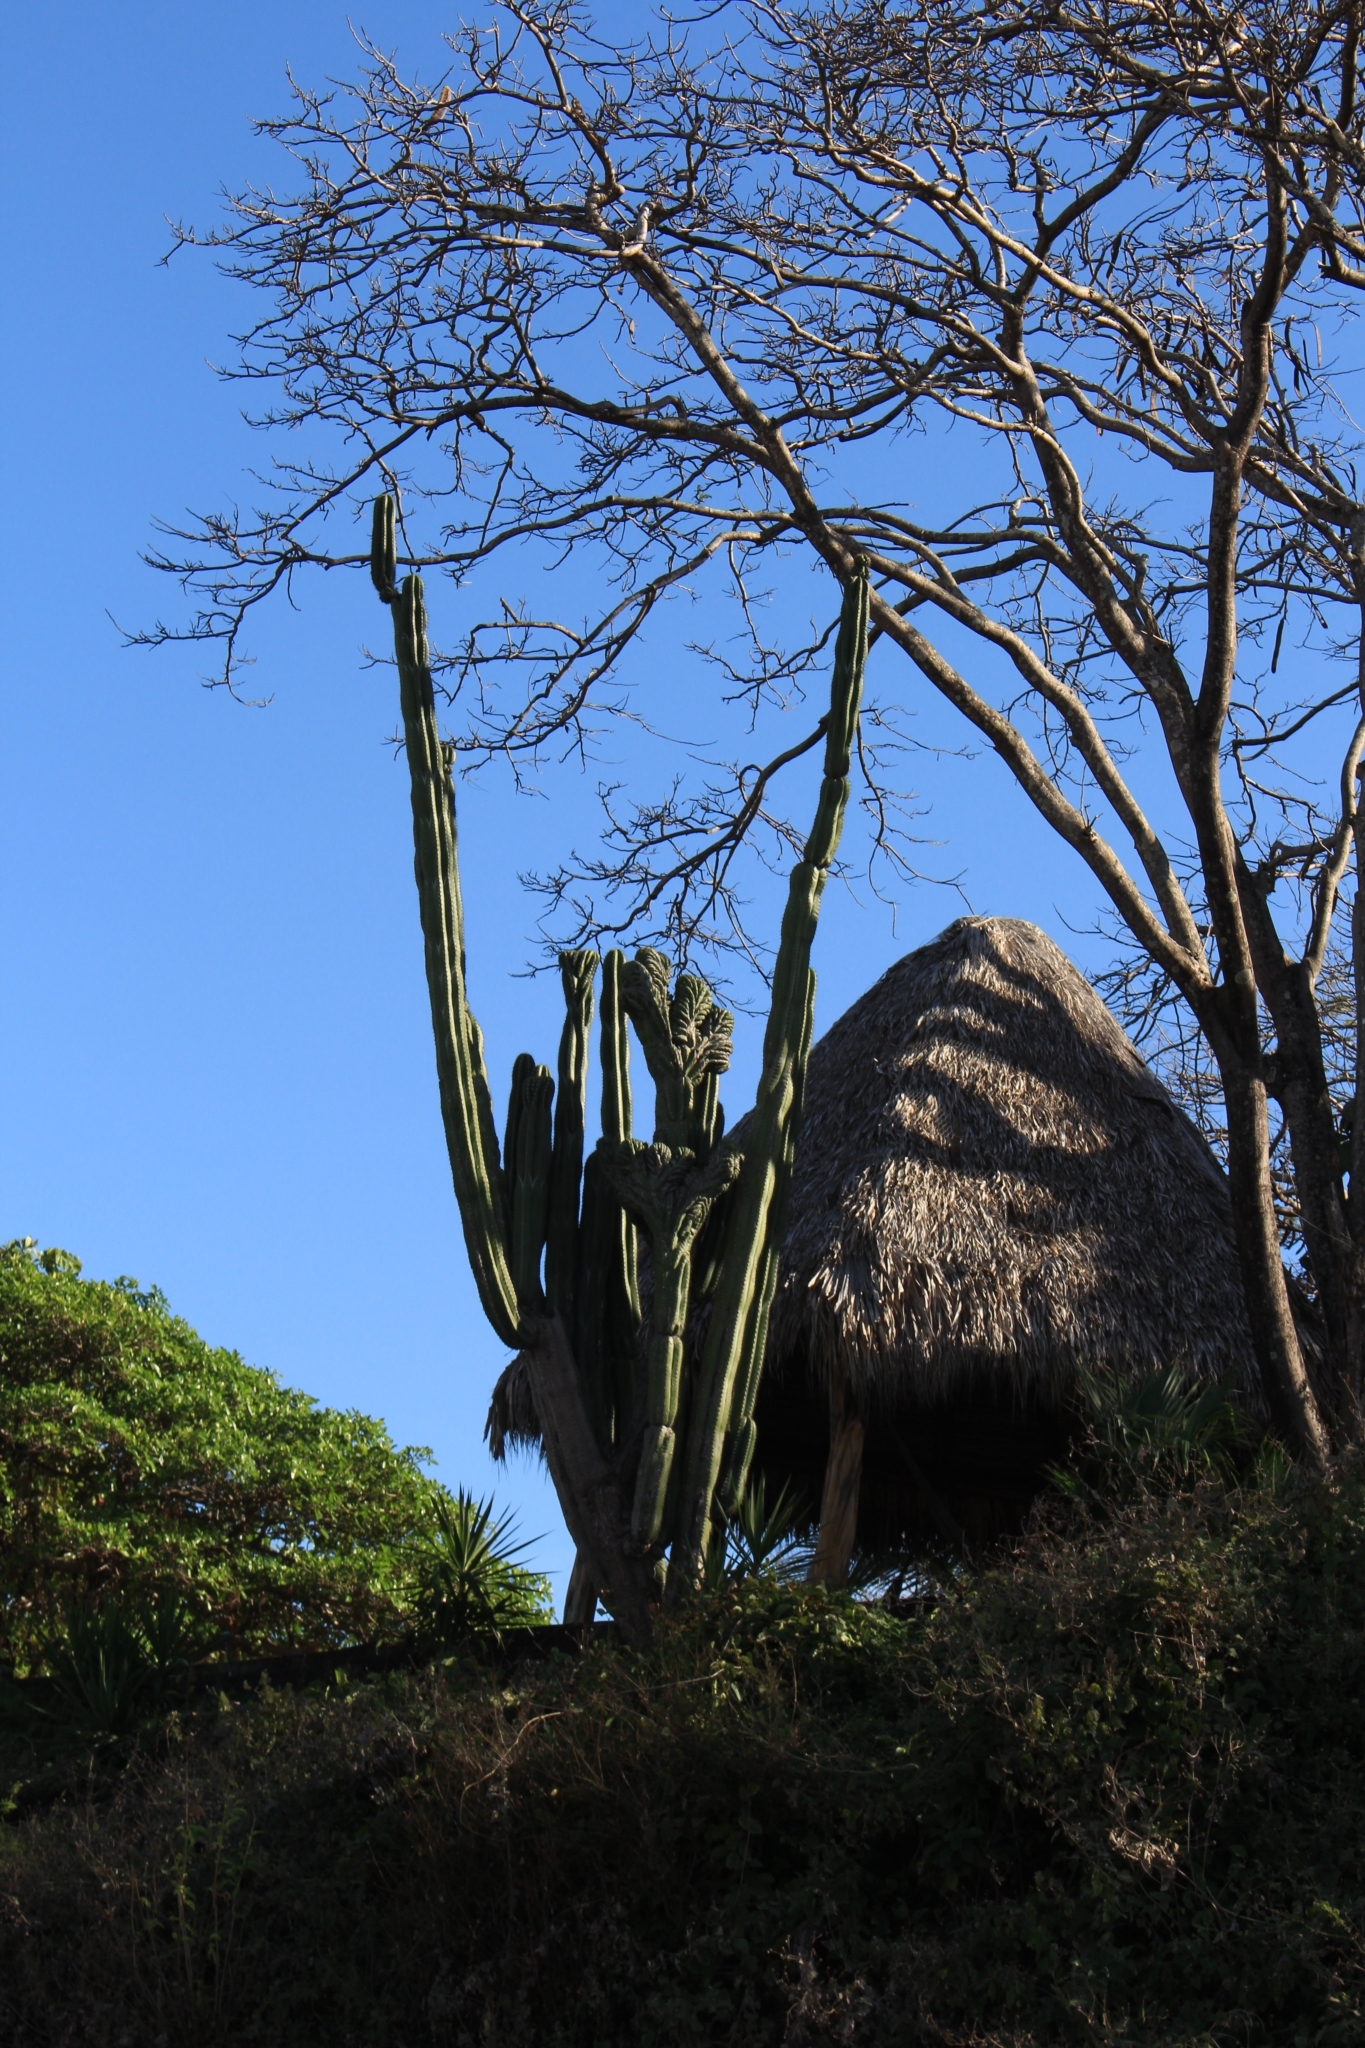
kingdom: Plantae
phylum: Tracheophyta
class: Magnoliopsida
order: Caryophyllales
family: Cactaceae
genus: Stenocereus
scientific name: Stenocereus aragonii
